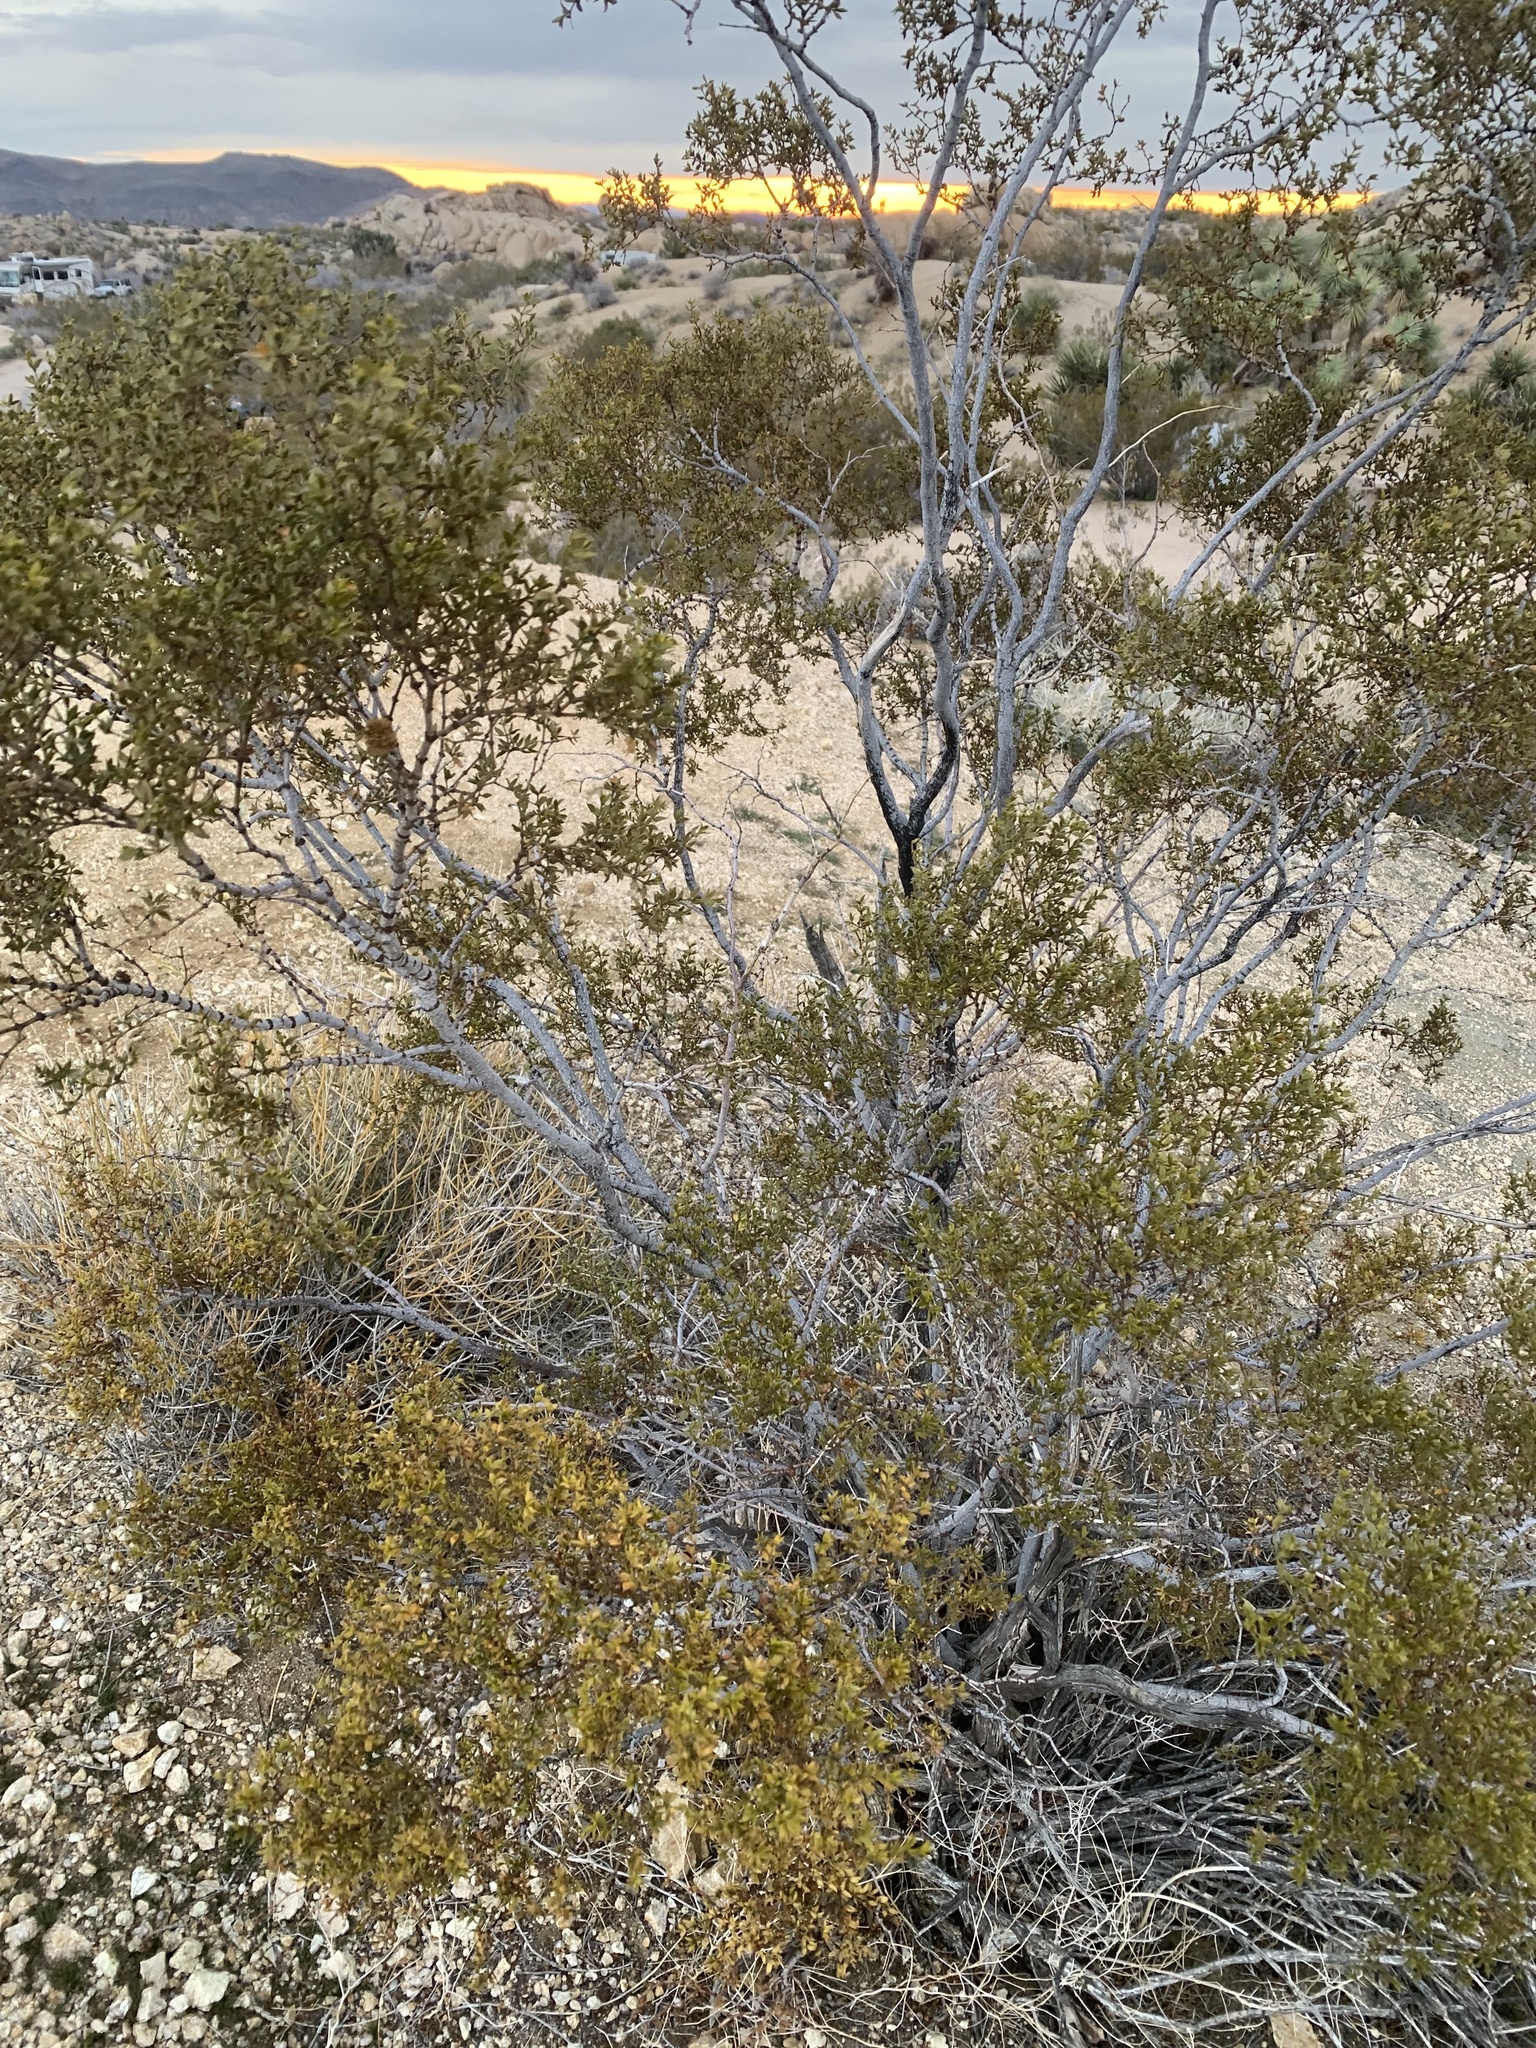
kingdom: Plantae
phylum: Tracheophyta
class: Magnoliopsida
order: Zygophyllales
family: Zygophyllaceae
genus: Larrea
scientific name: Larrea tridentata
